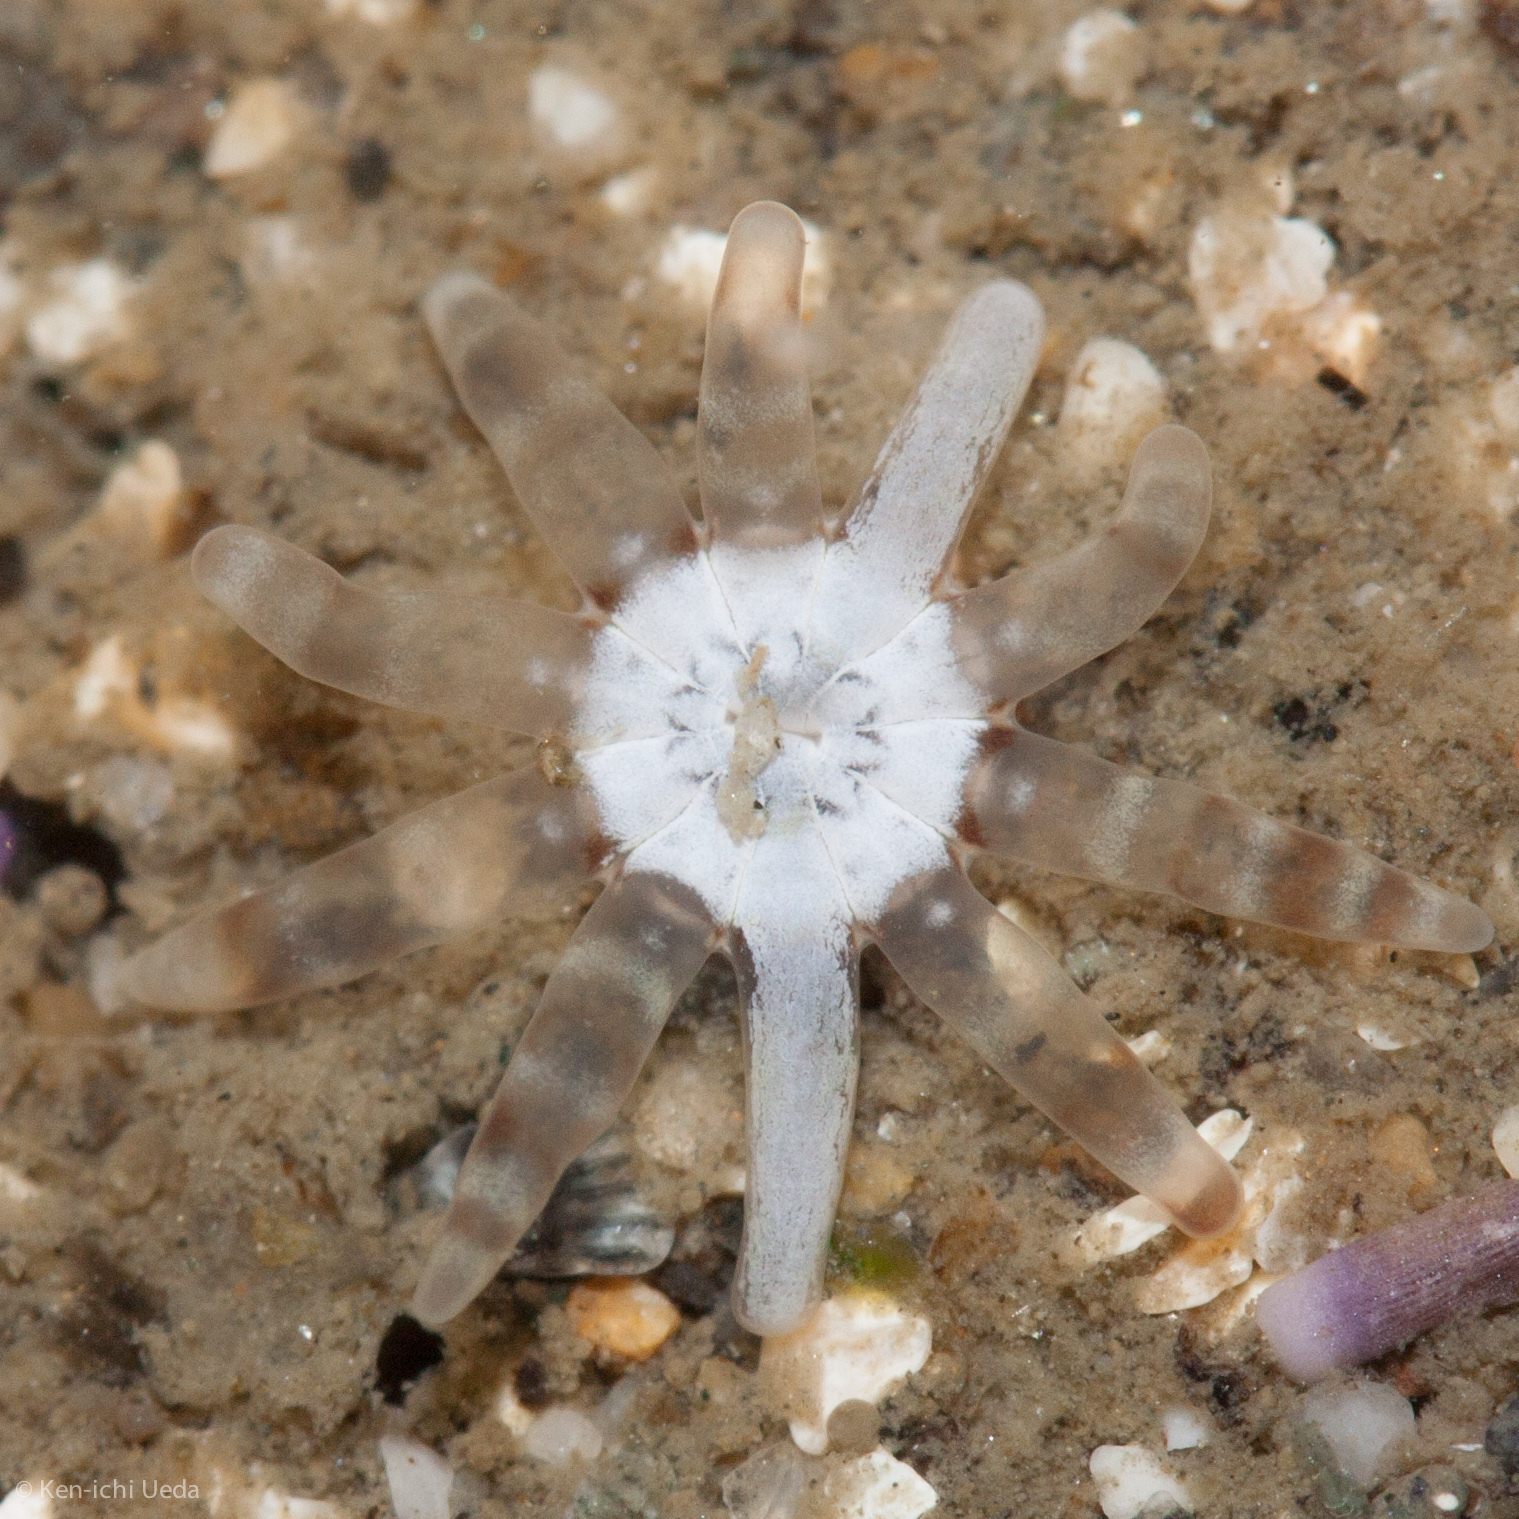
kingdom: Animalia
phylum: Cnidaria
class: Anthozoa
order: Actiniaria
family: Halcampidae
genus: Halcampa
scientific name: Halcampa decemtentaculata
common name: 10-tentacle burrowing anemone
